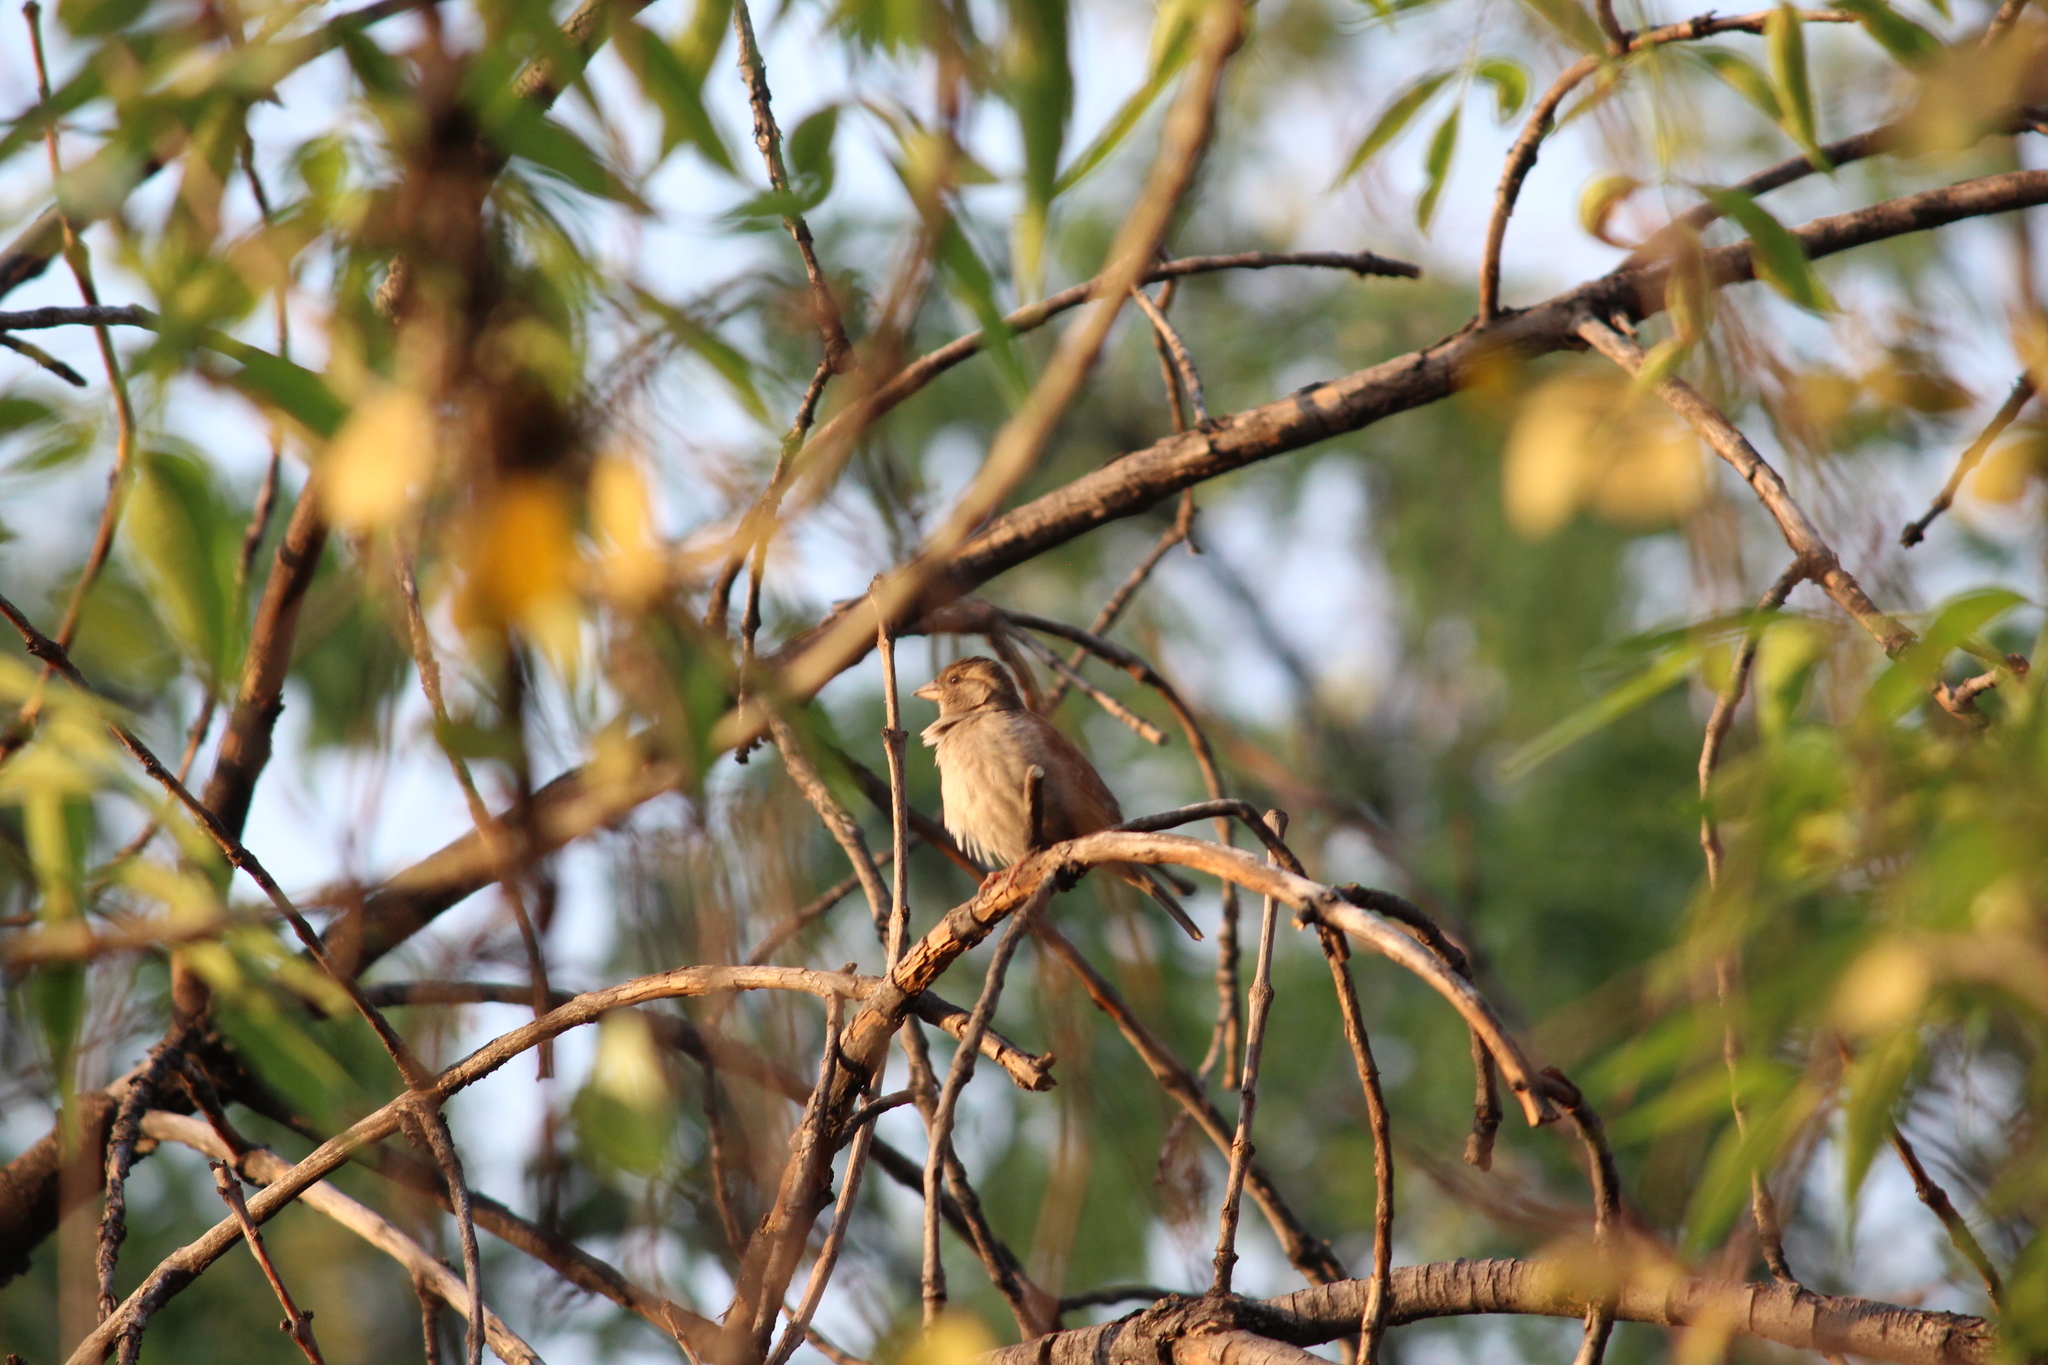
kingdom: Animalia
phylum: Chordata
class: Aves
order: Passeriformes
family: Passeridae
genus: Passer
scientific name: Passer domesticus
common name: House sparrow
